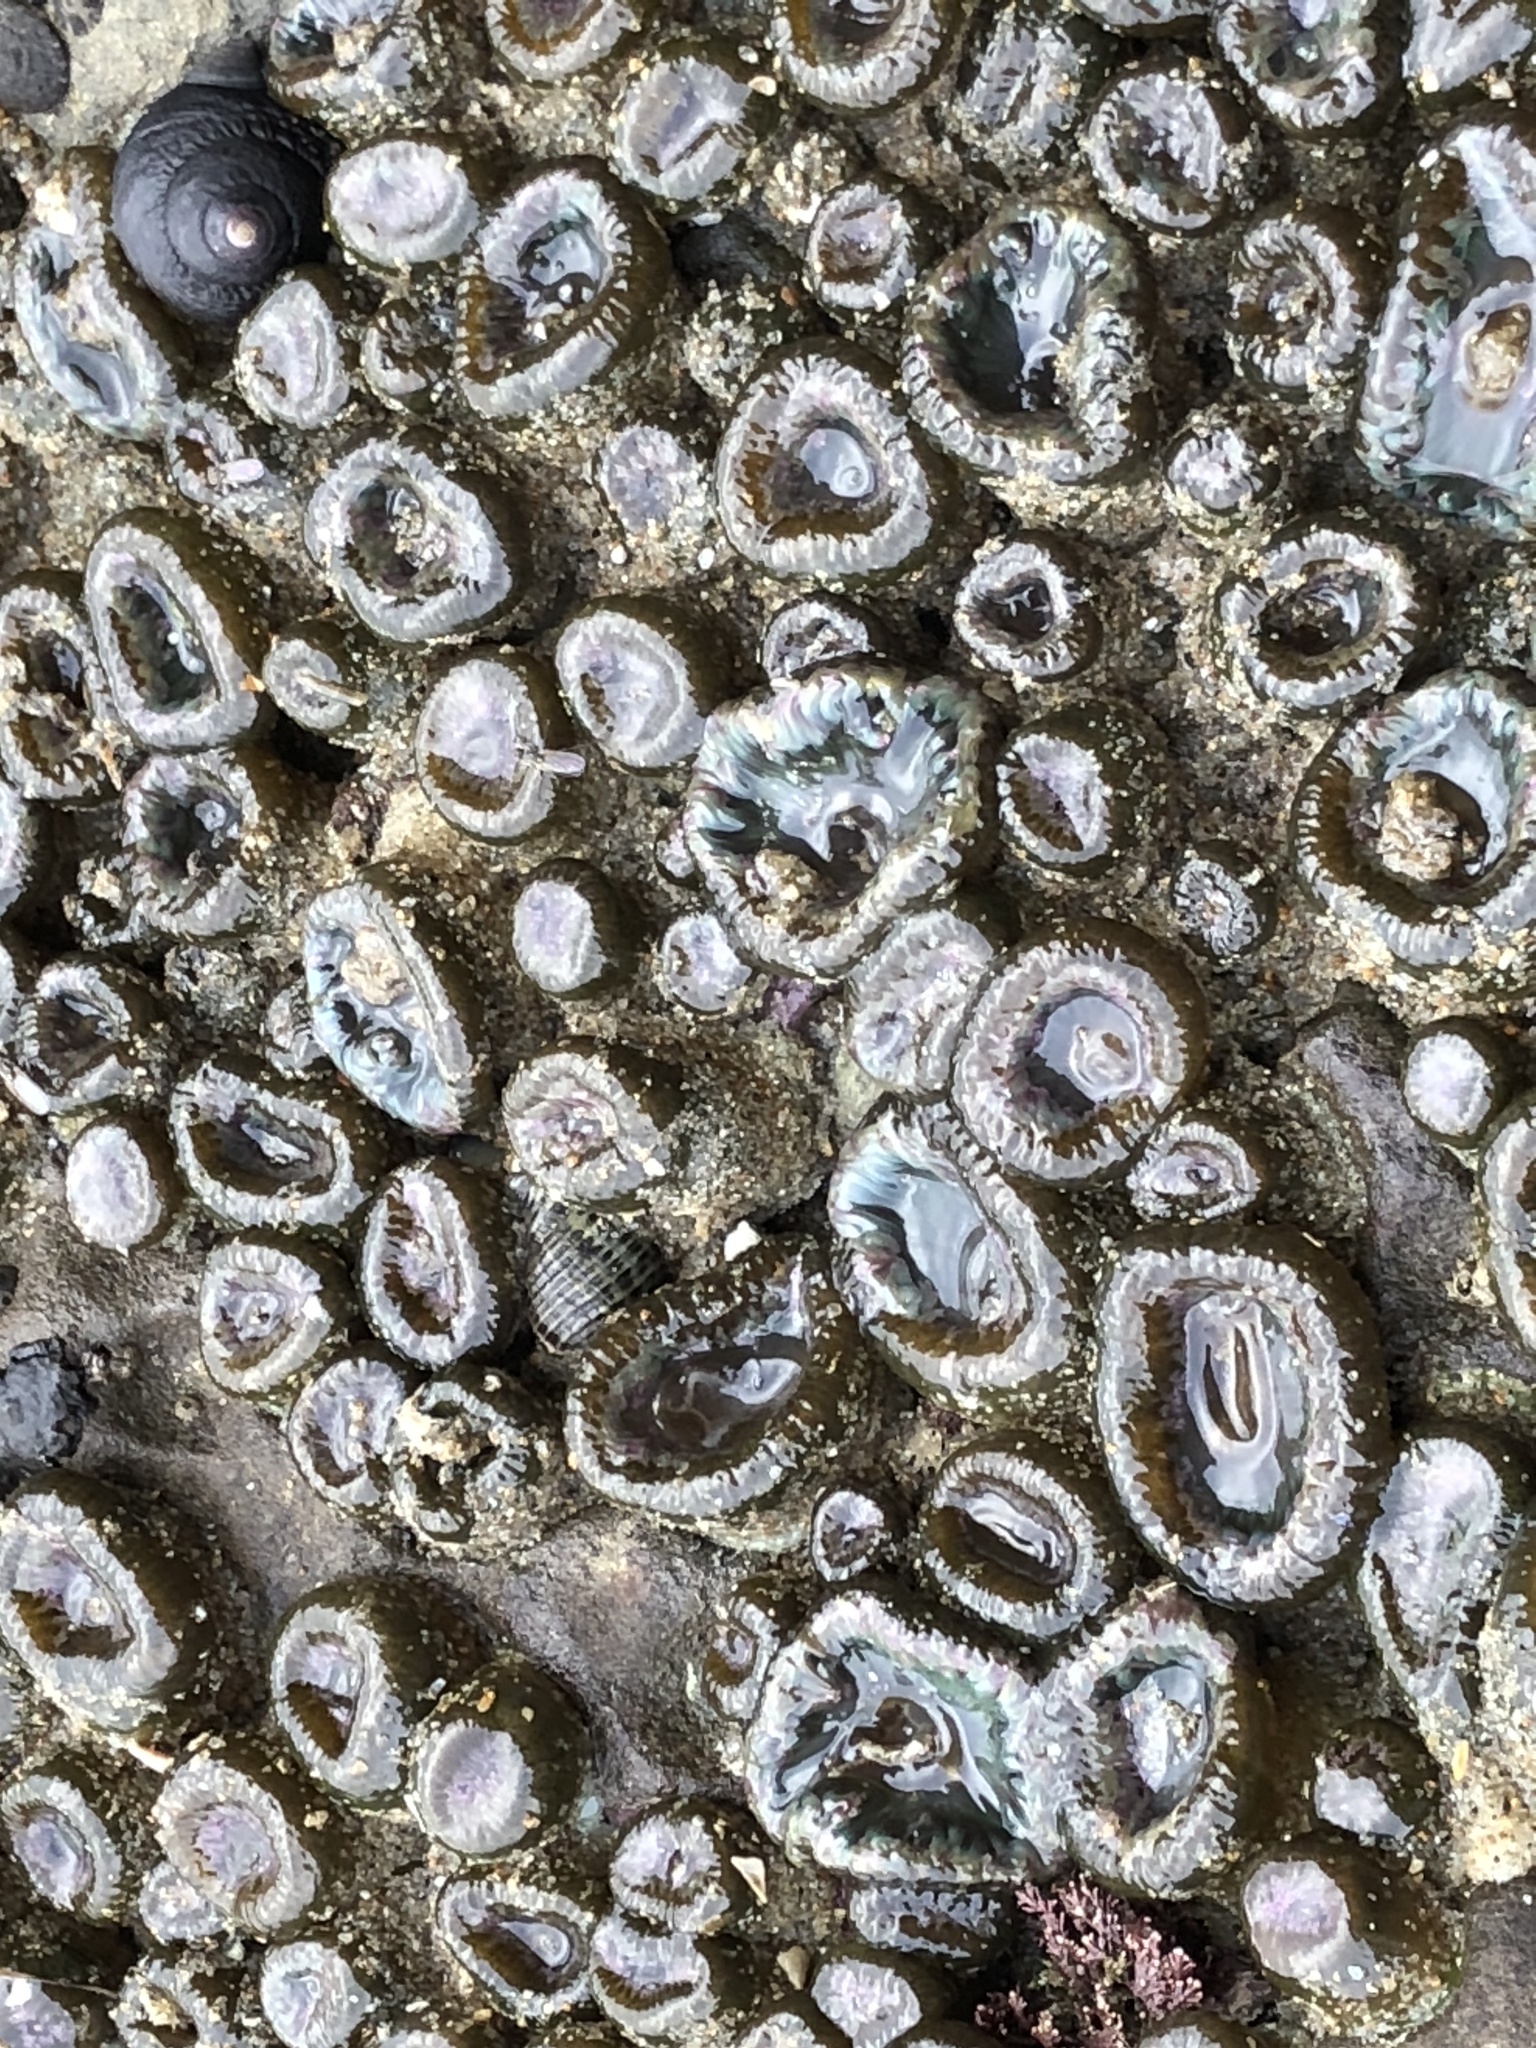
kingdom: Animalia
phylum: Cnidaria
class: Anthozoa
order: Actiniaria
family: Actiniidae
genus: Anthopleura
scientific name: Anthopleura elegantissima
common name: Clonal anemone
